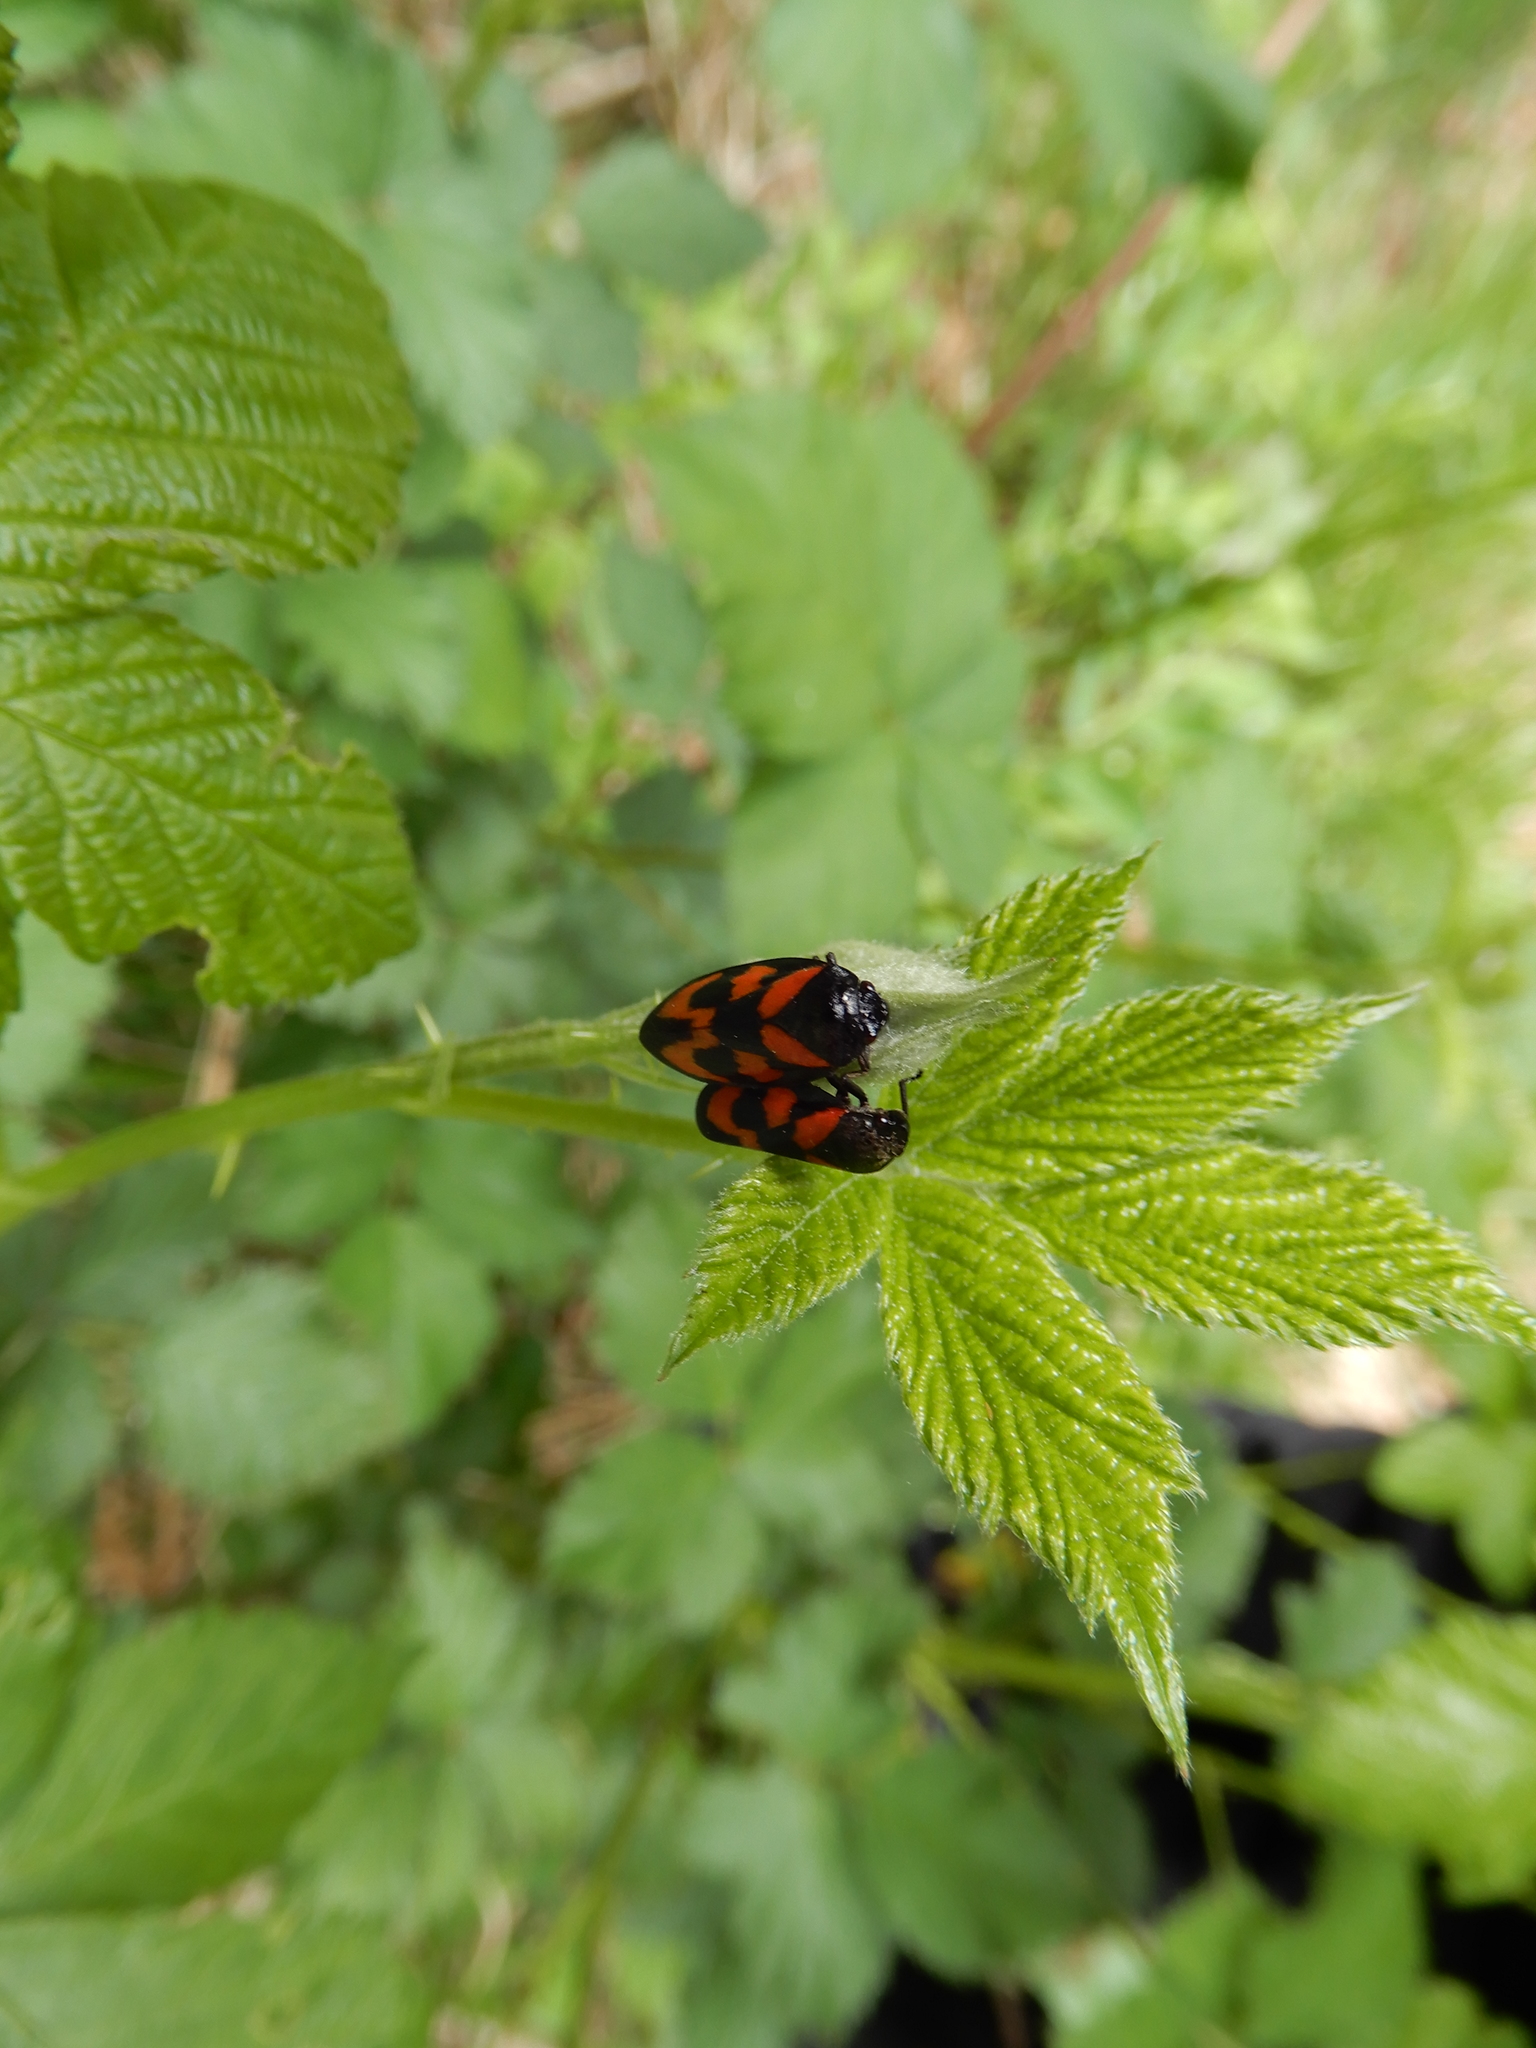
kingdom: Animalia
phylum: Arthropoda
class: Insecta
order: Hemiptera
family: Cercopidae
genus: Cercopis
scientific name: Cercopis vulnerata
